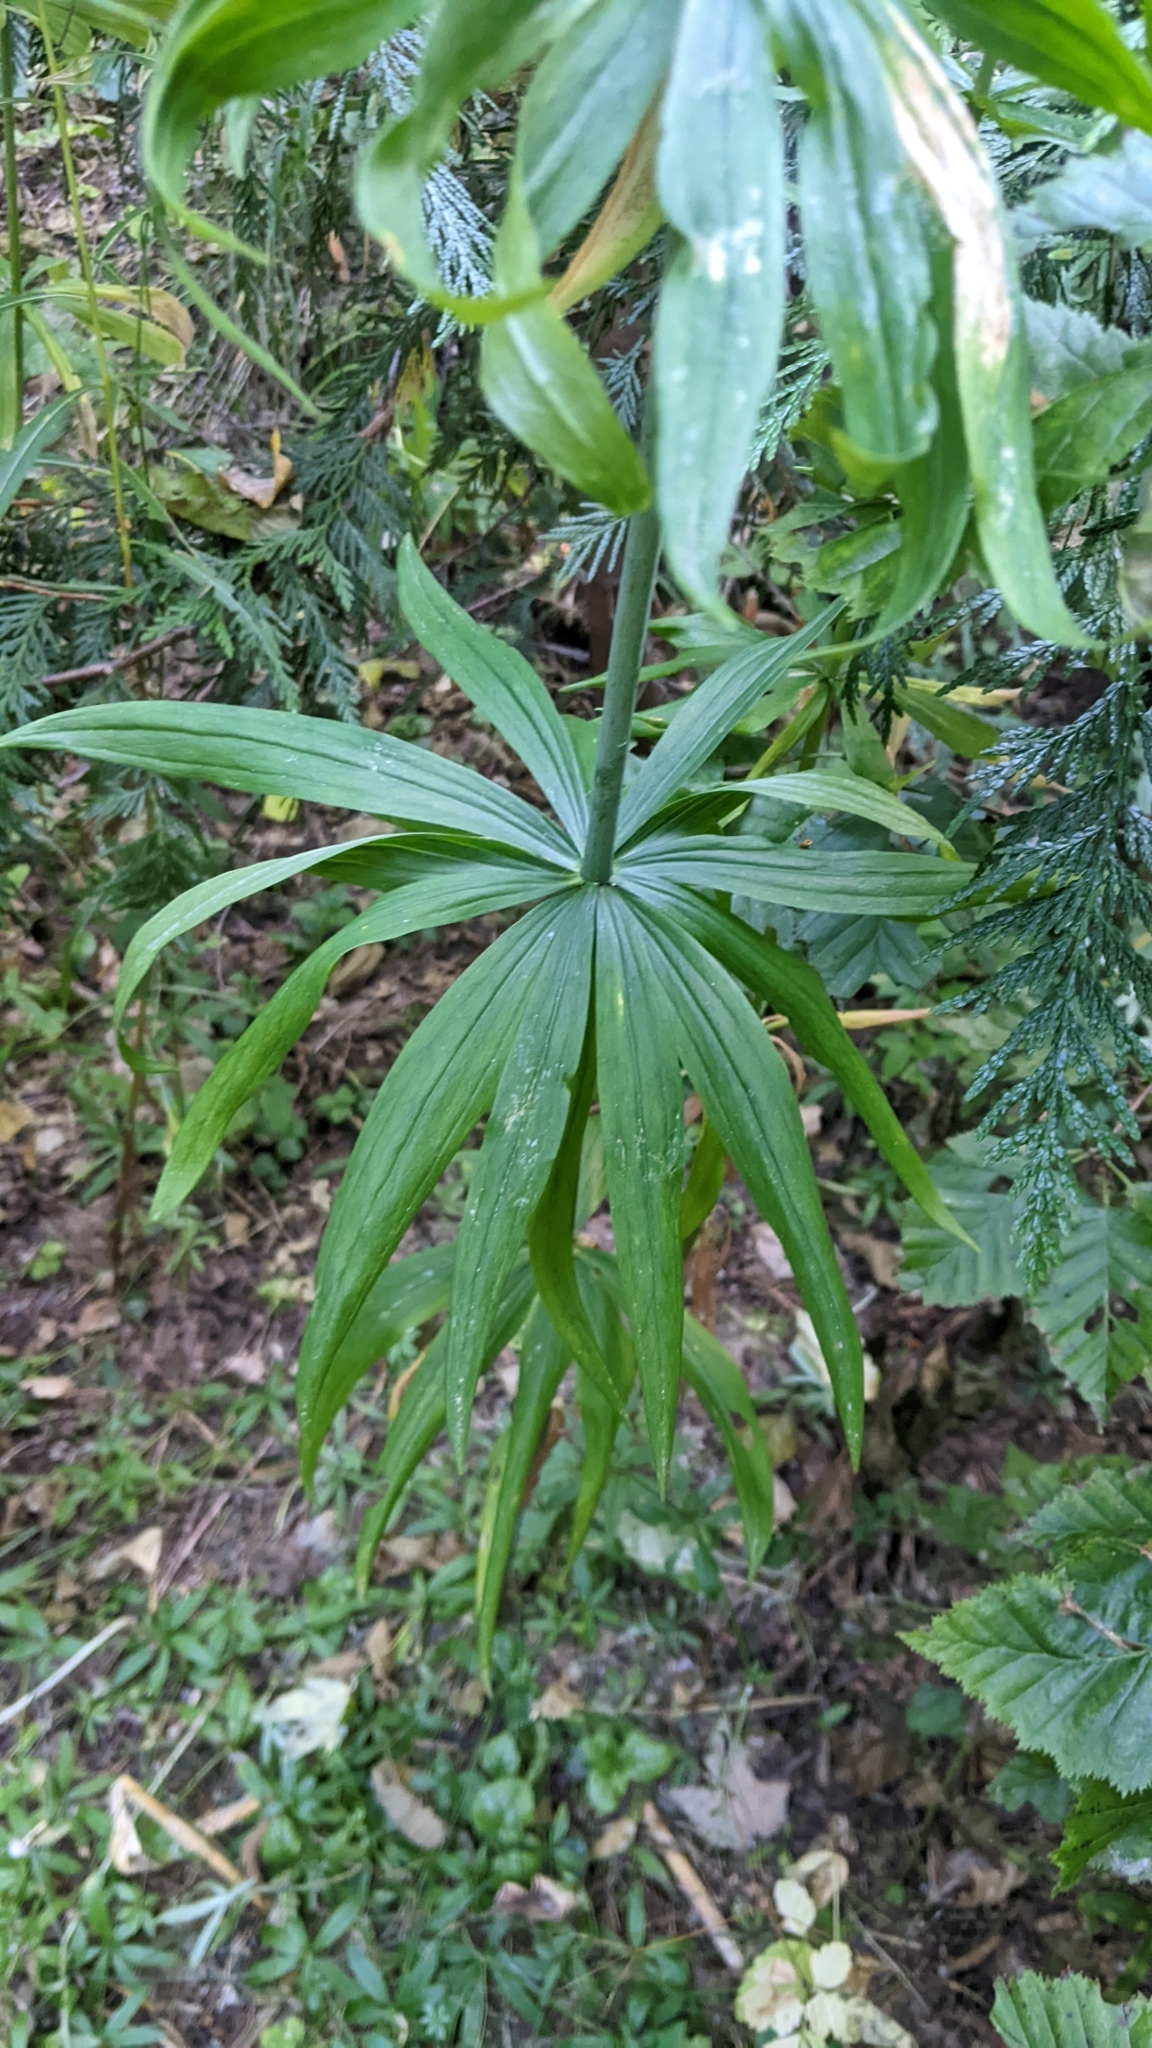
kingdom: Plantae
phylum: Tracheophyta
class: Liliopsida
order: Liliales
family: Liliaceae
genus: Lilium
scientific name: Lilium columbianum
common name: Columbia lily
